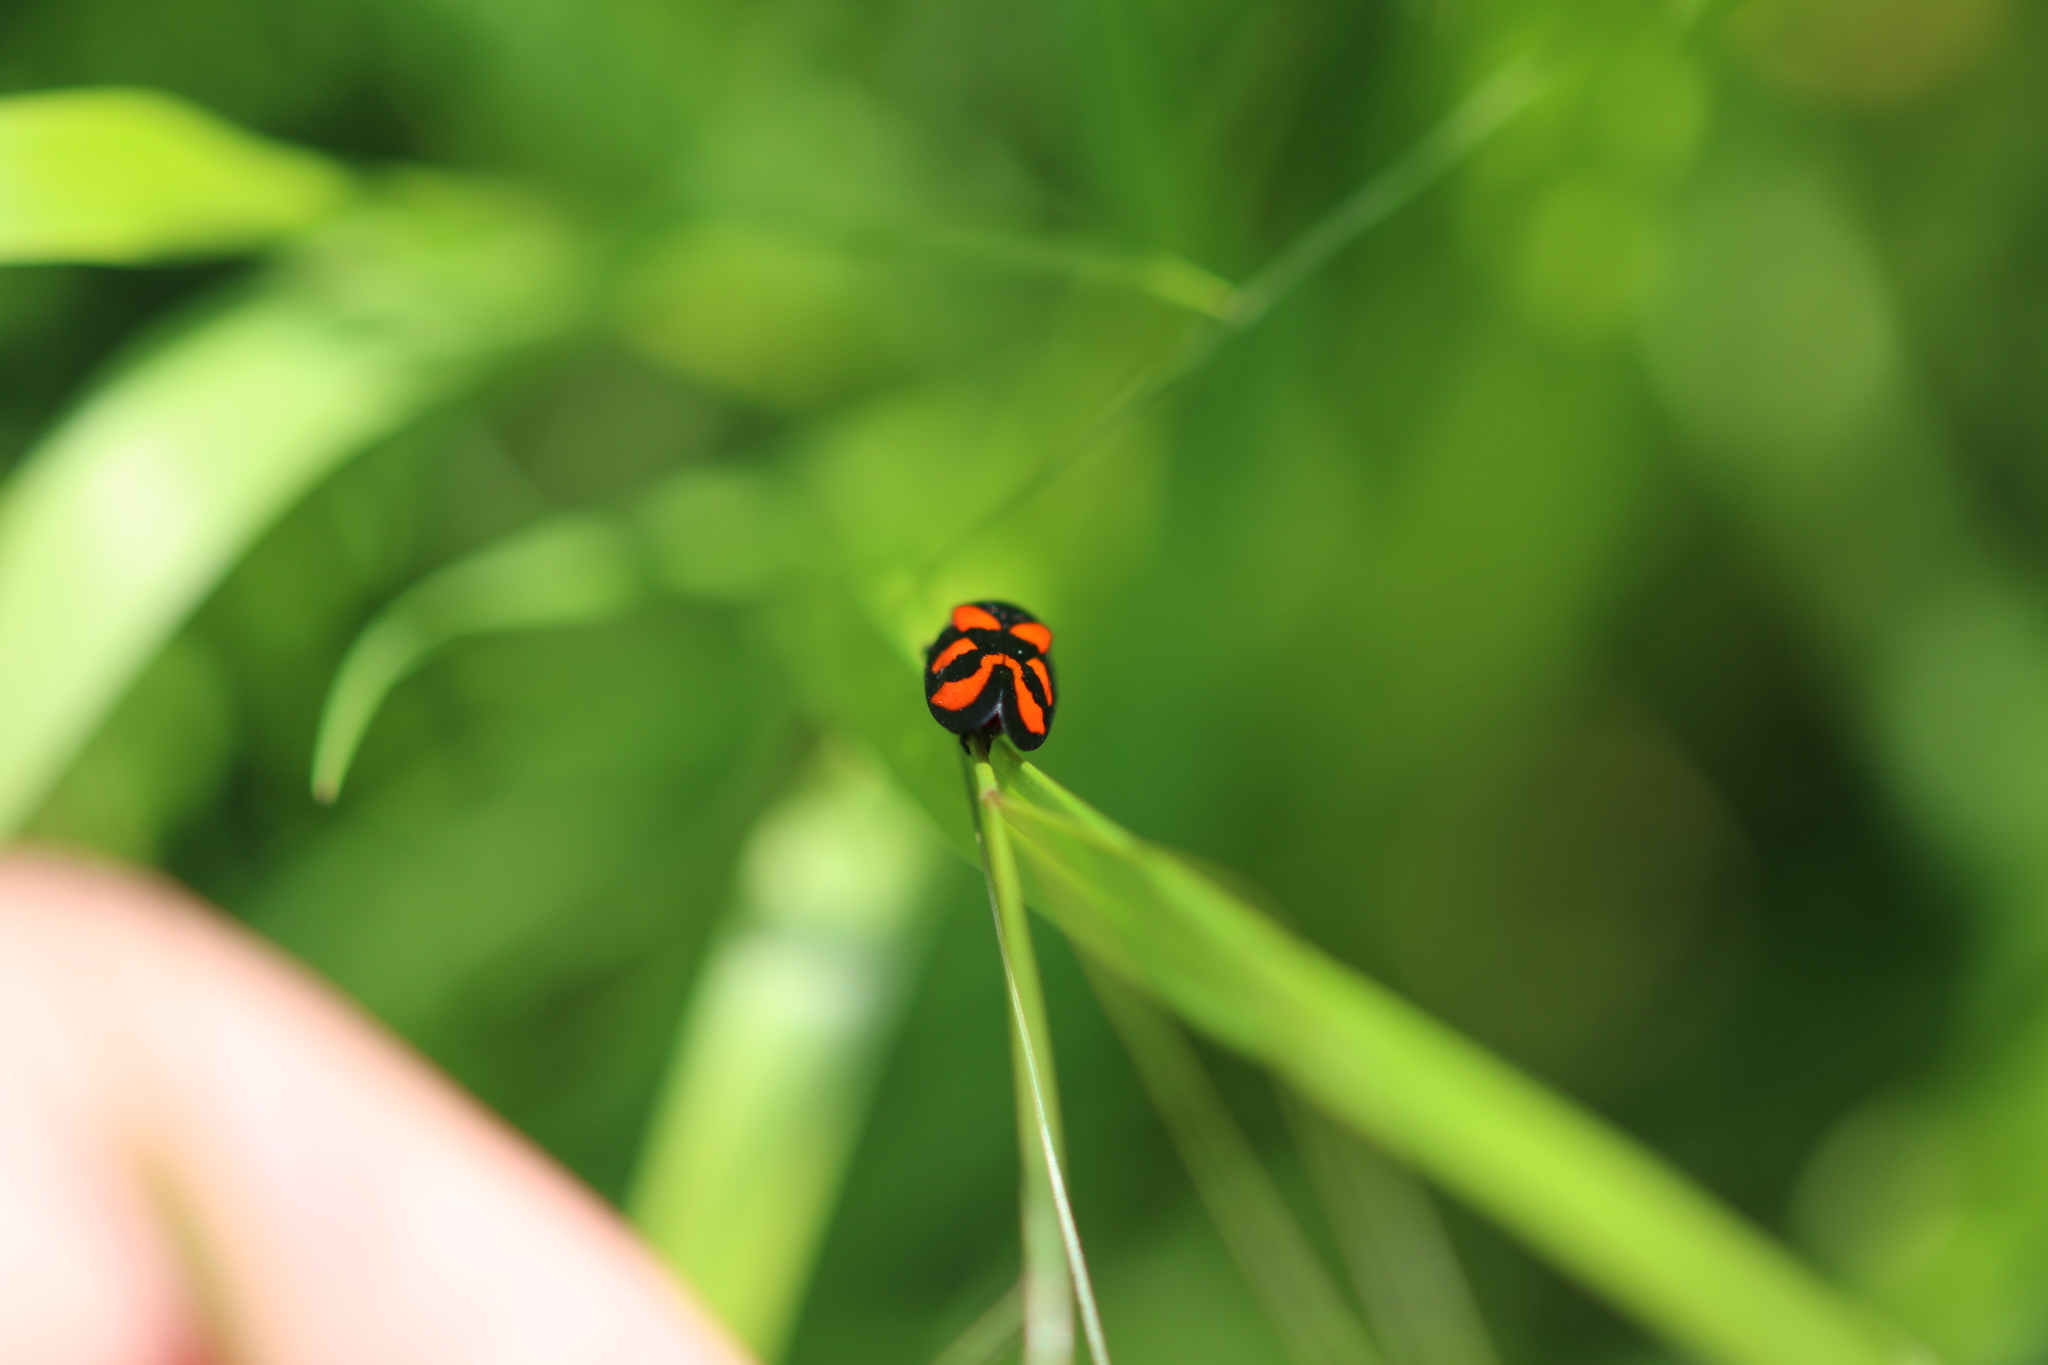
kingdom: Animalia
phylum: Arthropoda
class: Insecta
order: Hemiptera
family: Cercopidae
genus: Cercopis
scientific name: Cercopis vulnerata
